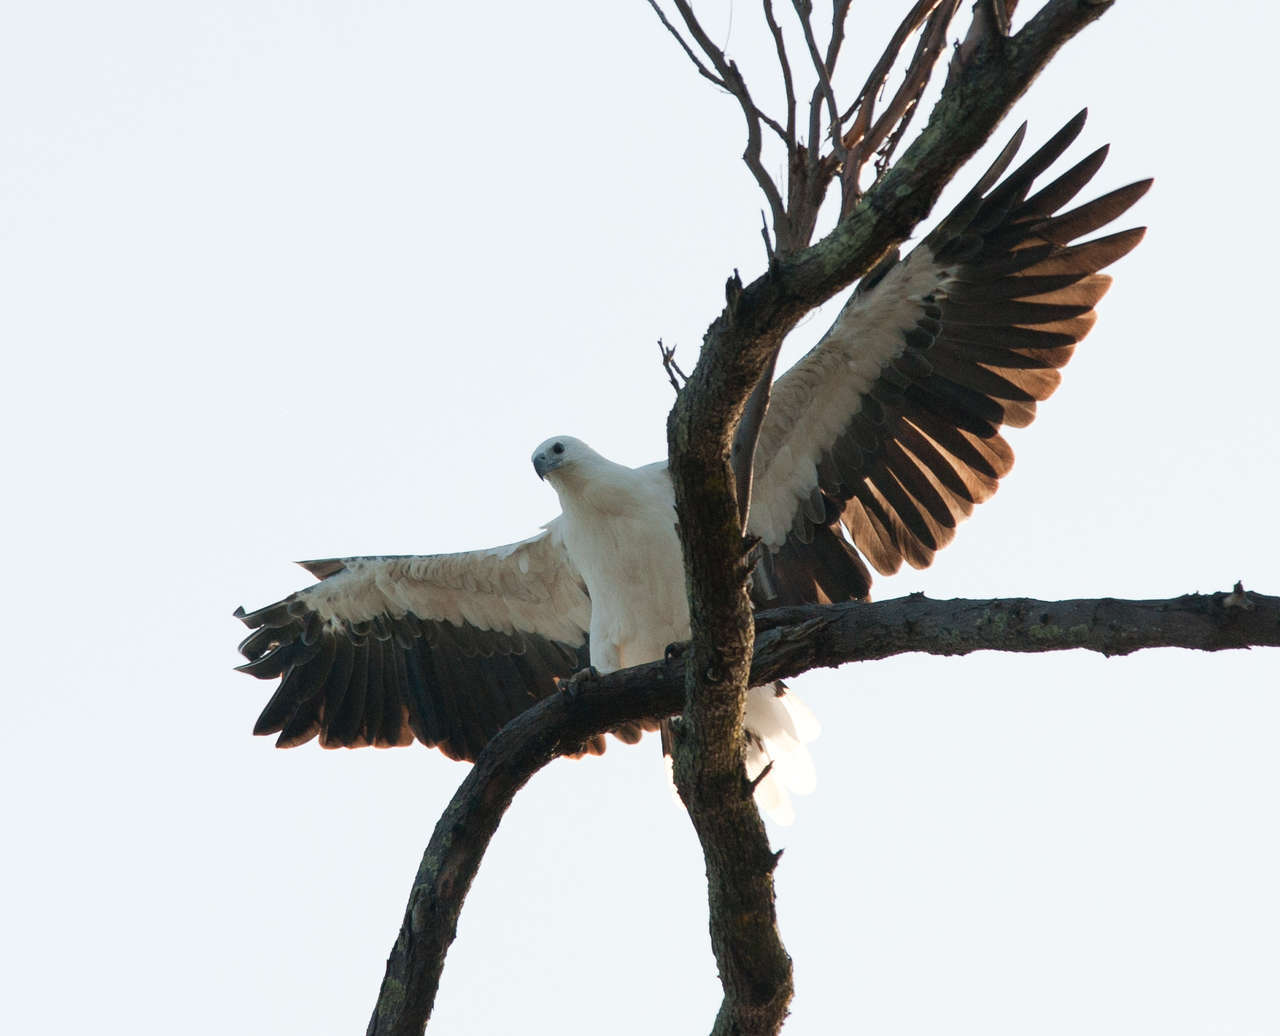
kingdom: Animalia
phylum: Chordata
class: Aves
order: Accipitriformes
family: Accipitridae
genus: Haliaeetus
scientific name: Haliaeetus leucogaster
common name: White-bellied sea eagle
